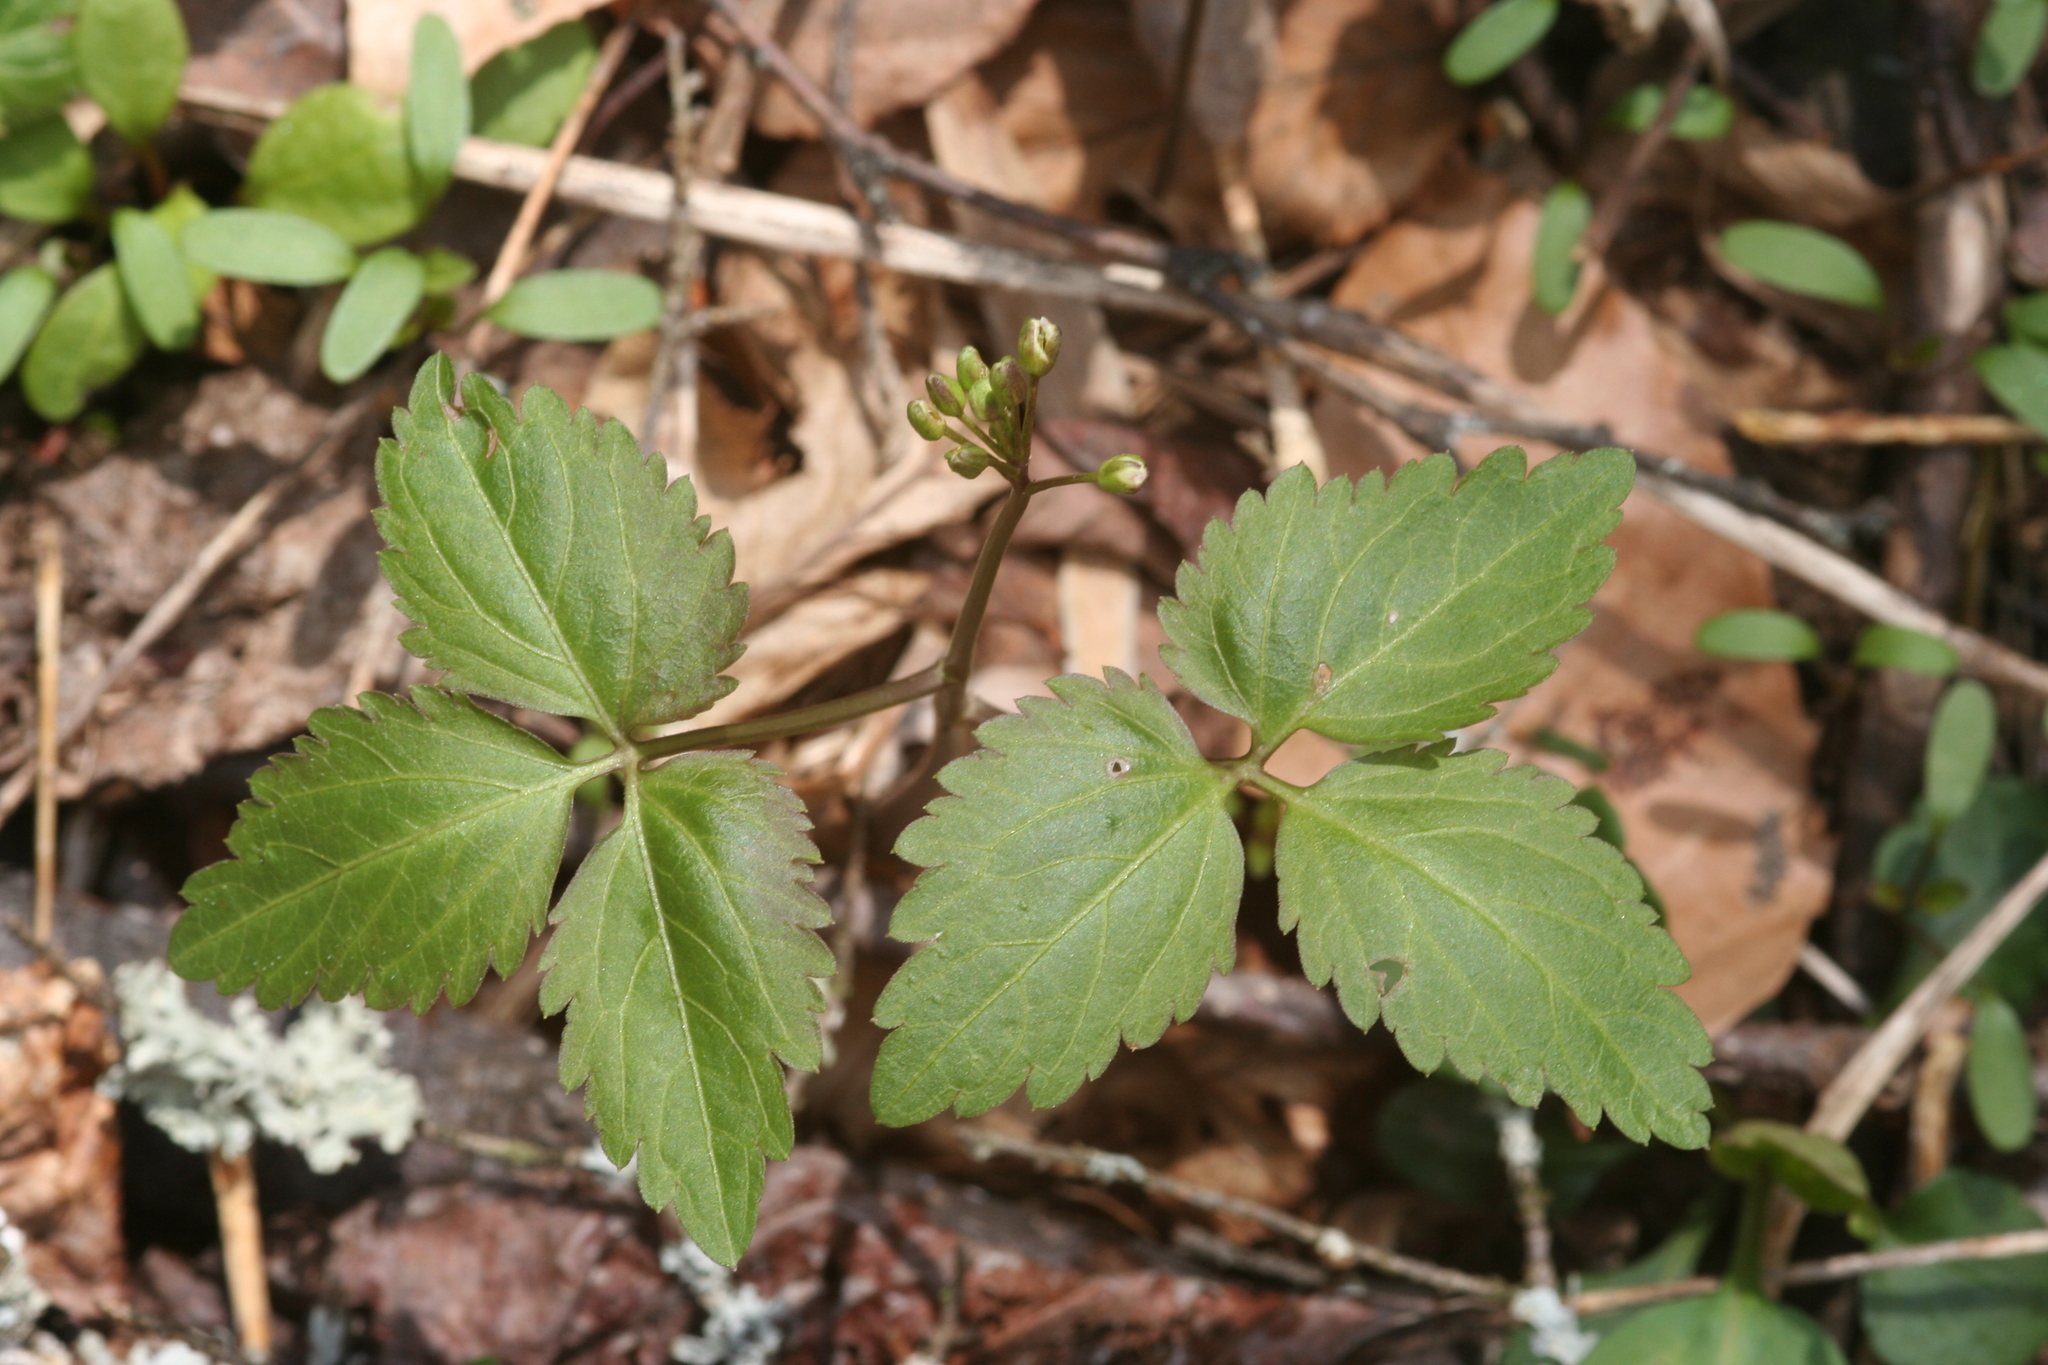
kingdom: Plantae
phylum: Tracheophyta
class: Magnoliopsida
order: Brassicales
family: Brassicaceae
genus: Cardamine
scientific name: Cardamine diphylla
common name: Broad-leaved toothwort
